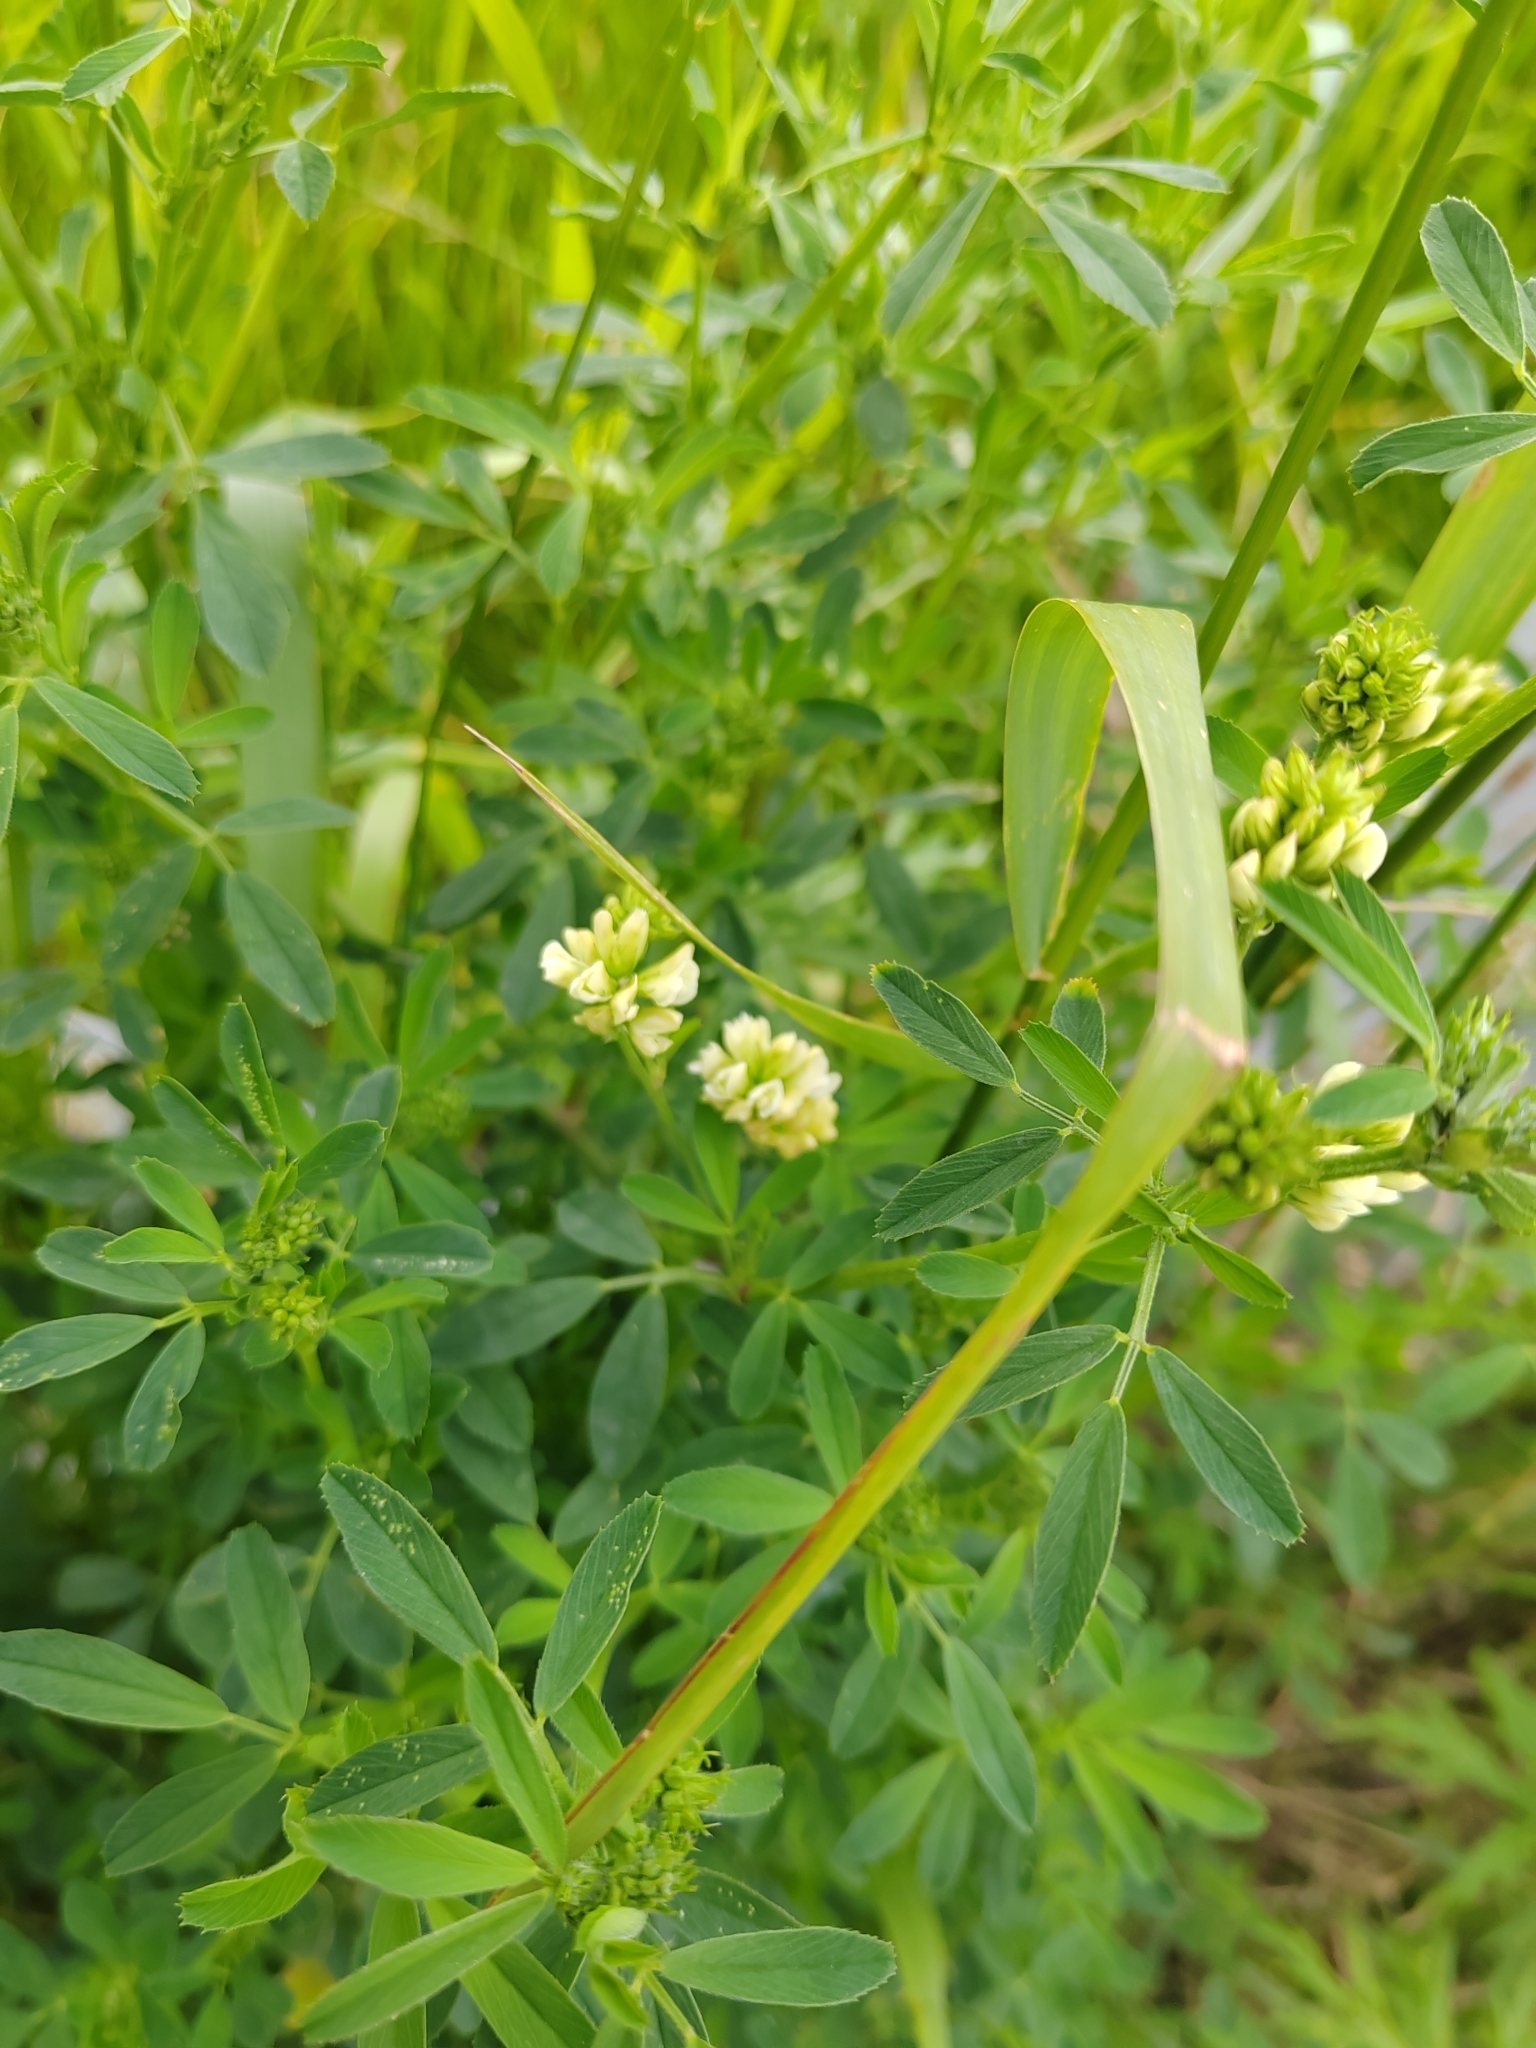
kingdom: Plantae
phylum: Tracheophyta
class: Magnoliopsida
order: Fabales
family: Fabaceae
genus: Medicago
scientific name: Medicago varia
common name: Sand lucerne
